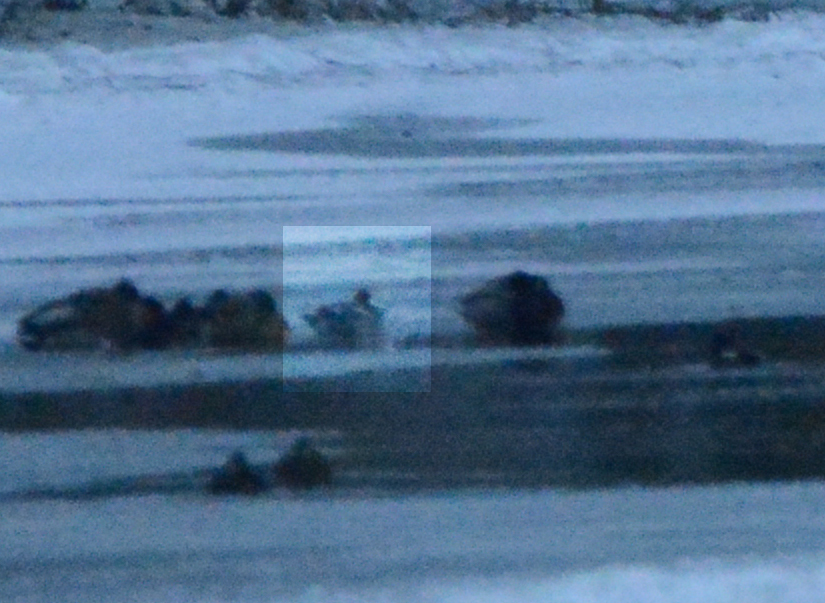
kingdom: Animalia
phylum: Chordata
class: Aves
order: Anseriformes
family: Anatidae
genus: Mareca
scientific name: Mareca penelope
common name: Eurasian wigeon
